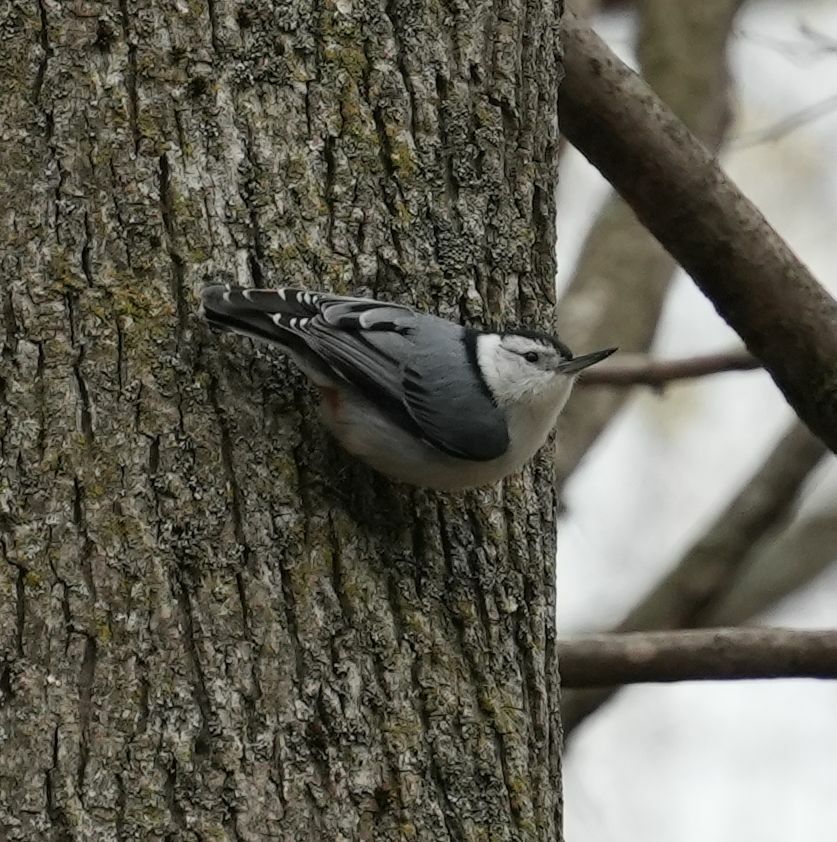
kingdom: Animalia
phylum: Chordata
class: Aves
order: Passeriformes
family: Sittidae
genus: Sitta
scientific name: Sitta carolinensis
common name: White-breasted nuthatch
